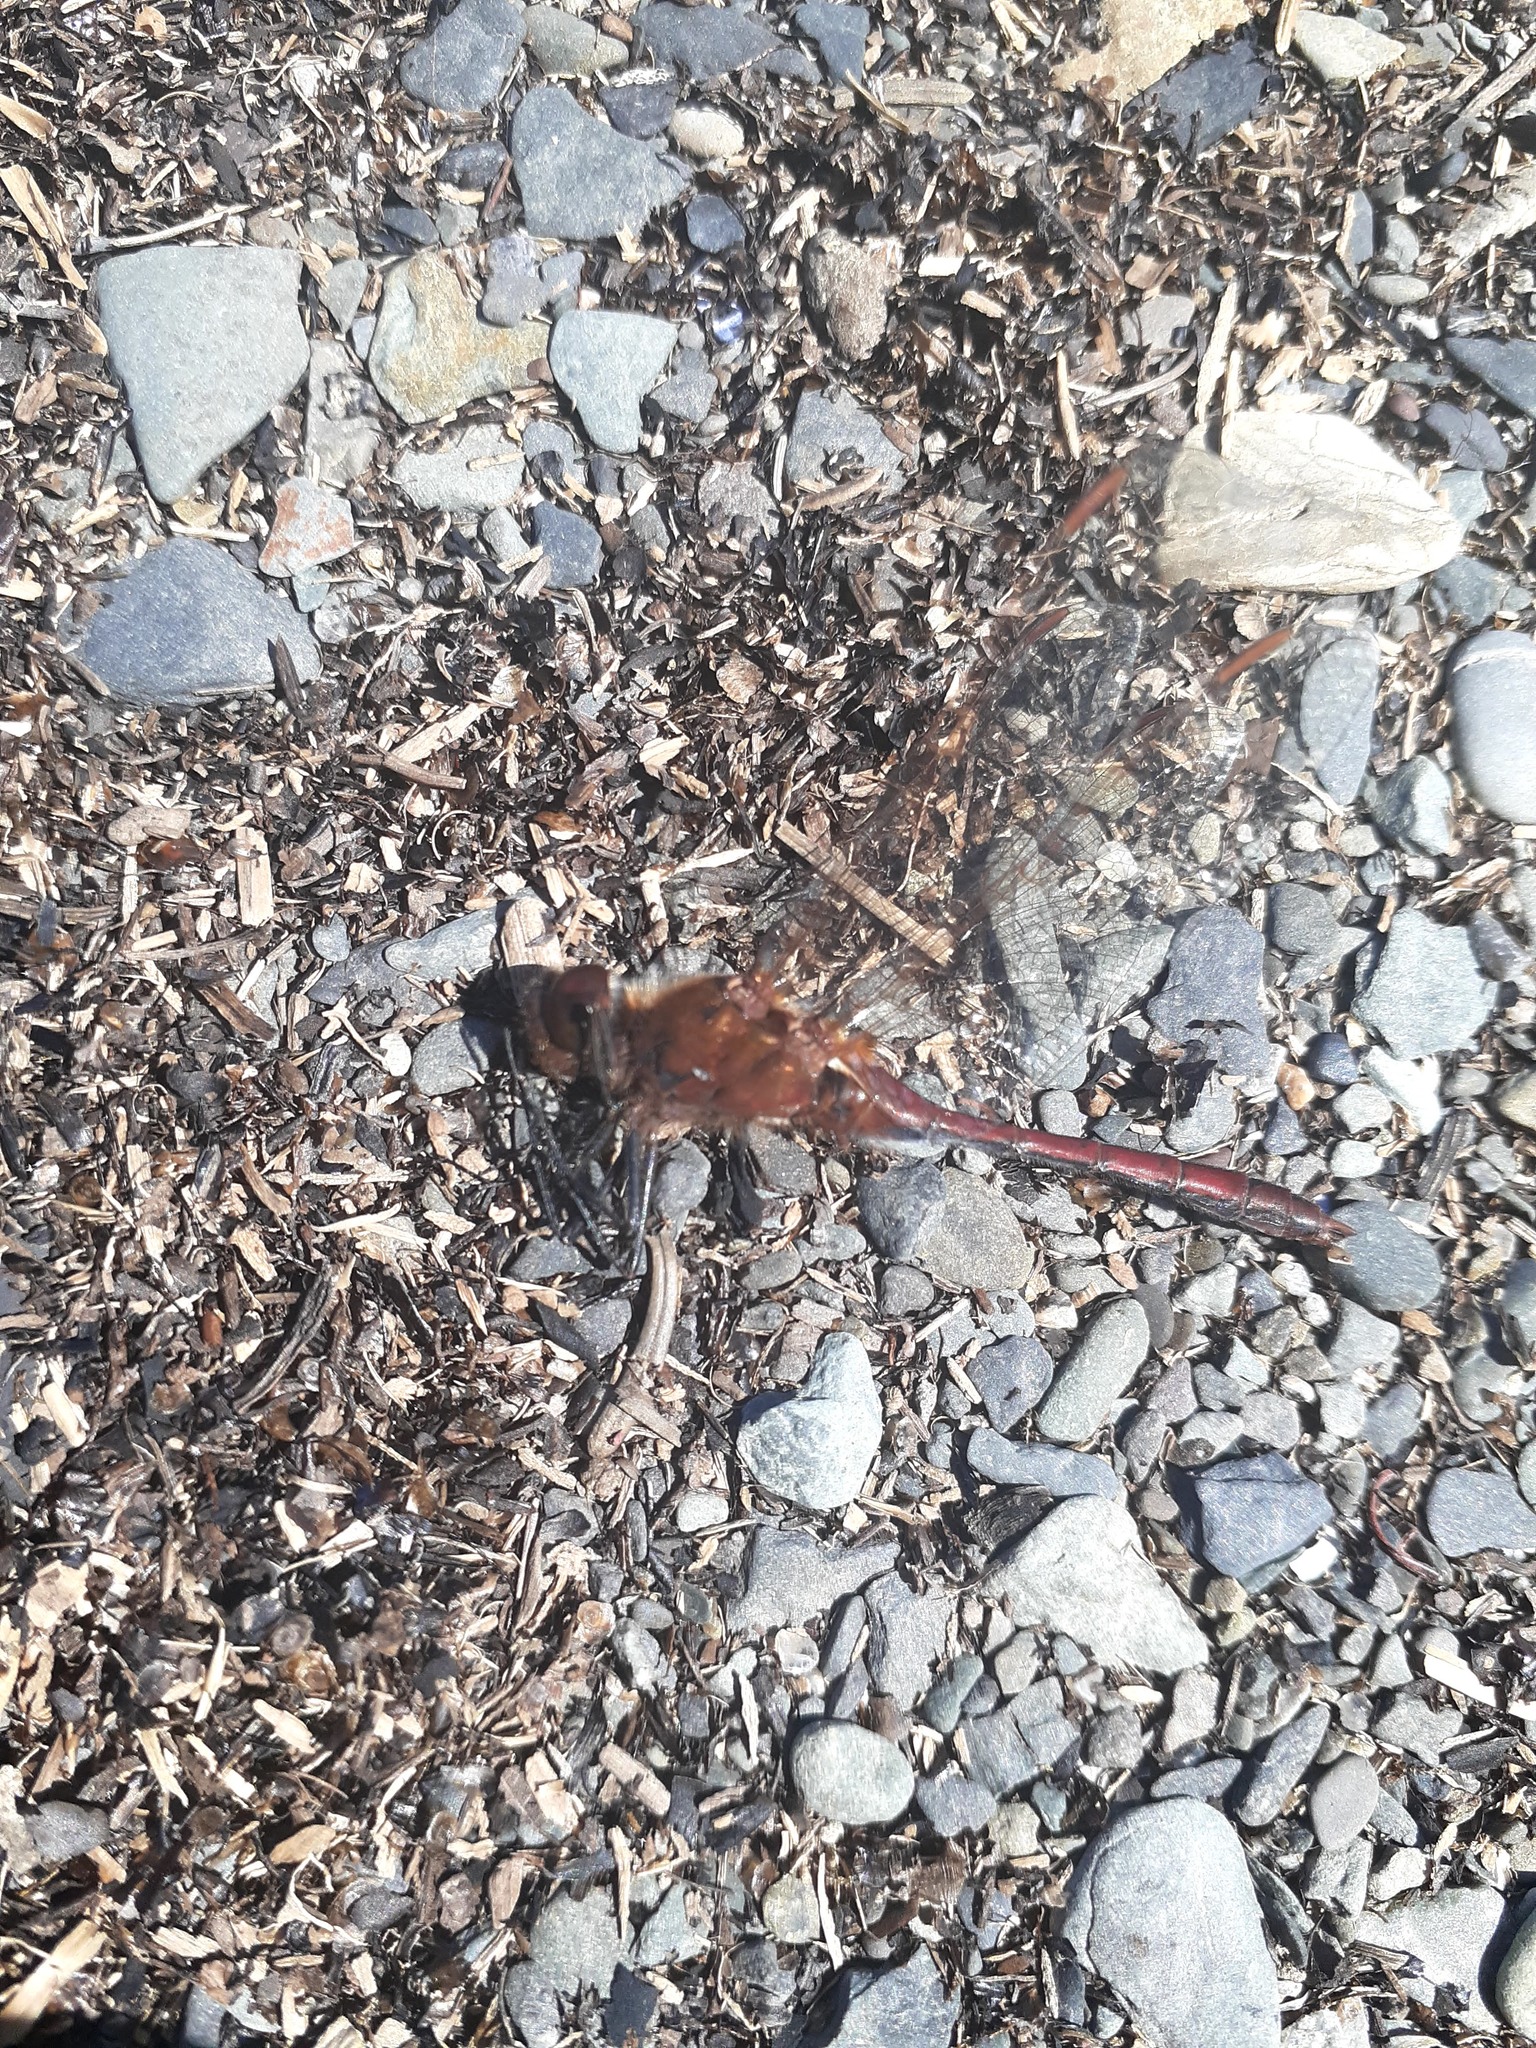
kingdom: Animalia
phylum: Arthropoda
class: Insecta
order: Odonata
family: Libellulidae
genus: Sympetrum
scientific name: Sympetrum costiferum
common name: Saffron-winged meadowhawk
